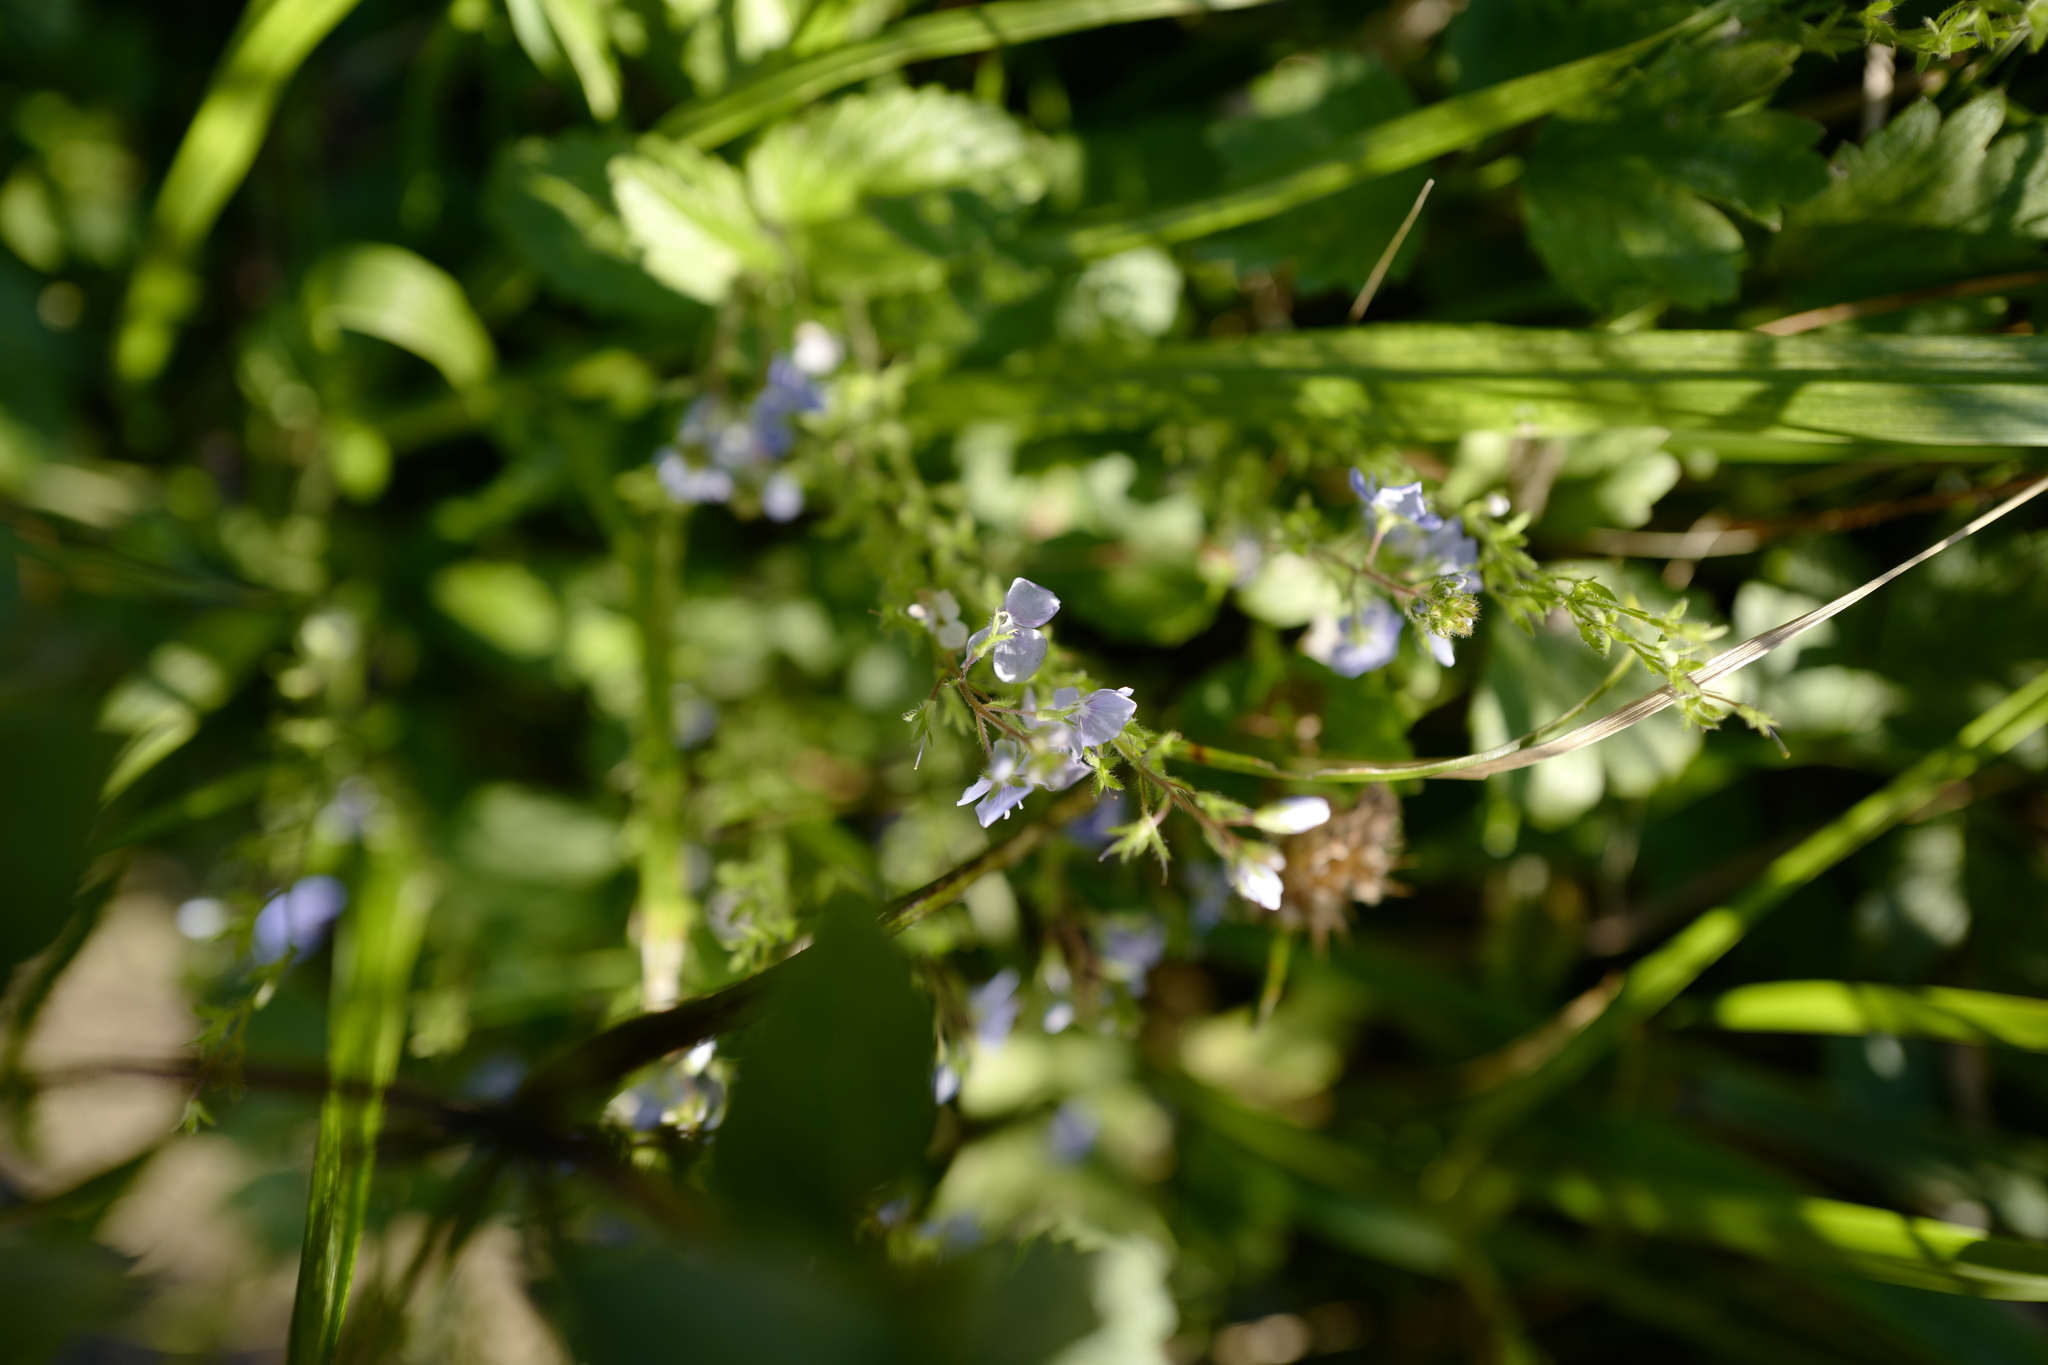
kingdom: Plantae
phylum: Tracheophyta
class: Magnoliopsida
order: Lamiales
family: Plantaginaceae
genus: Veronica
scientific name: Veronica persica
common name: Common field-speedwell
